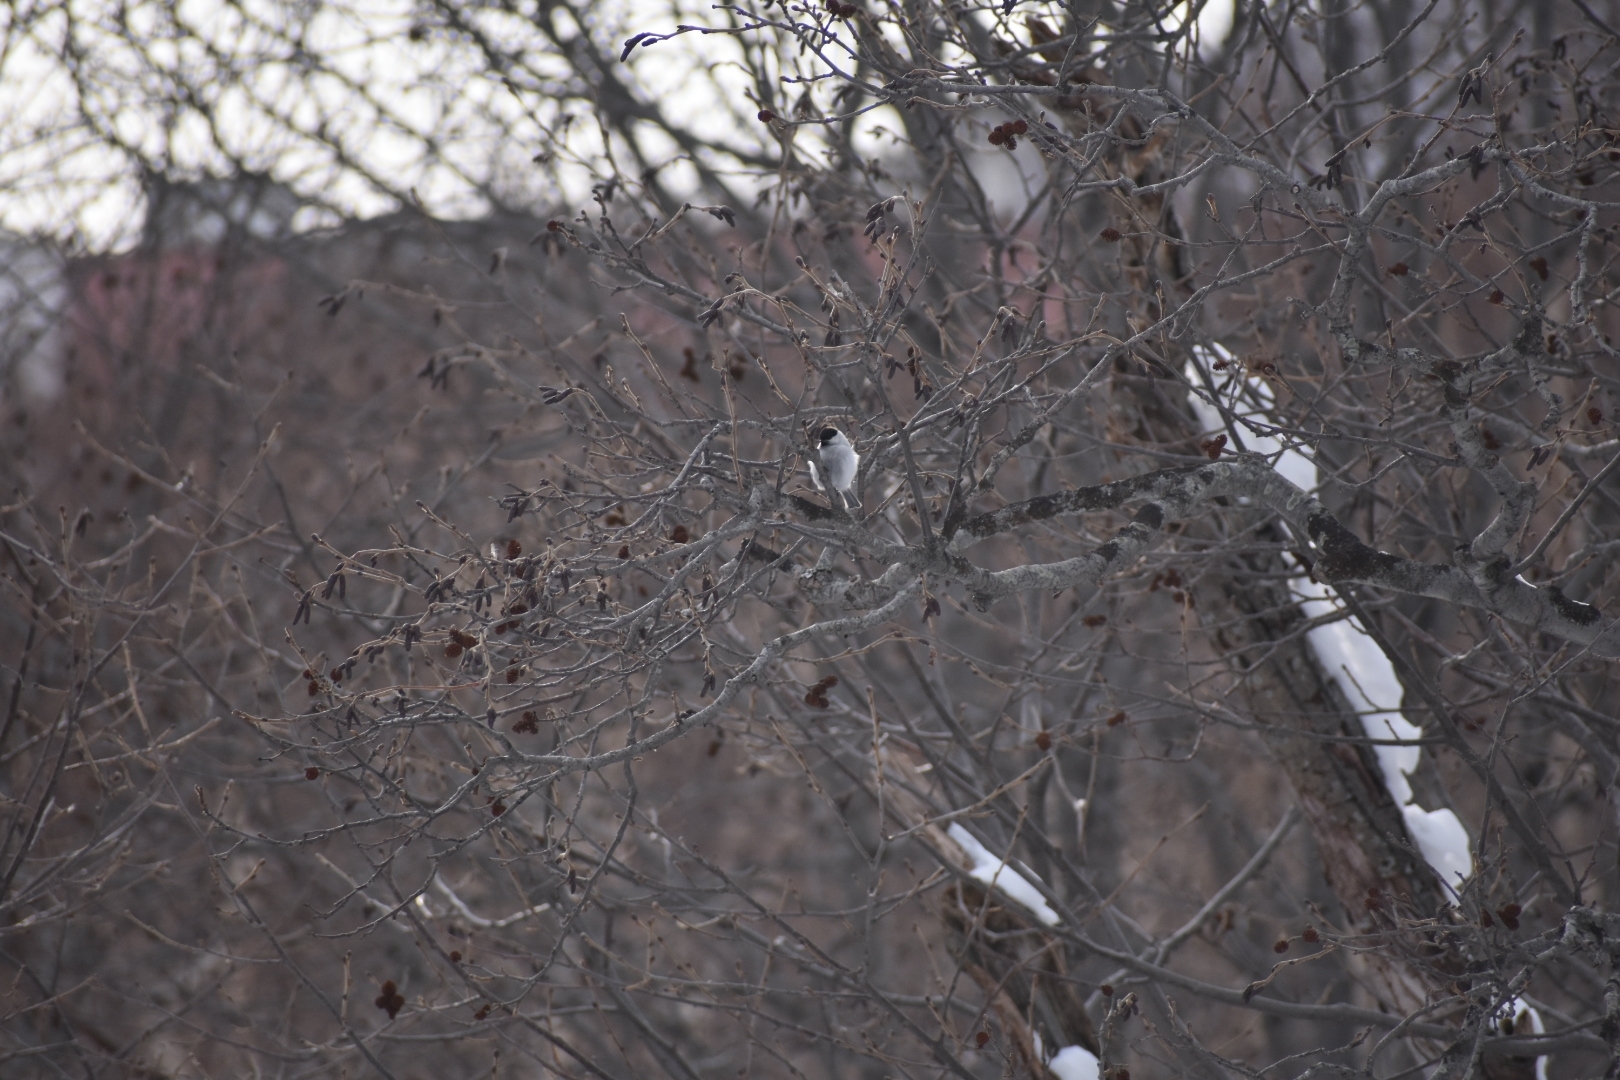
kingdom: Animalia
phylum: Chordata
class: Aves
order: Passeriformes
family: Paridae
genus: Poecile
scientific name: Poecile montanus
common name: Willow tit
